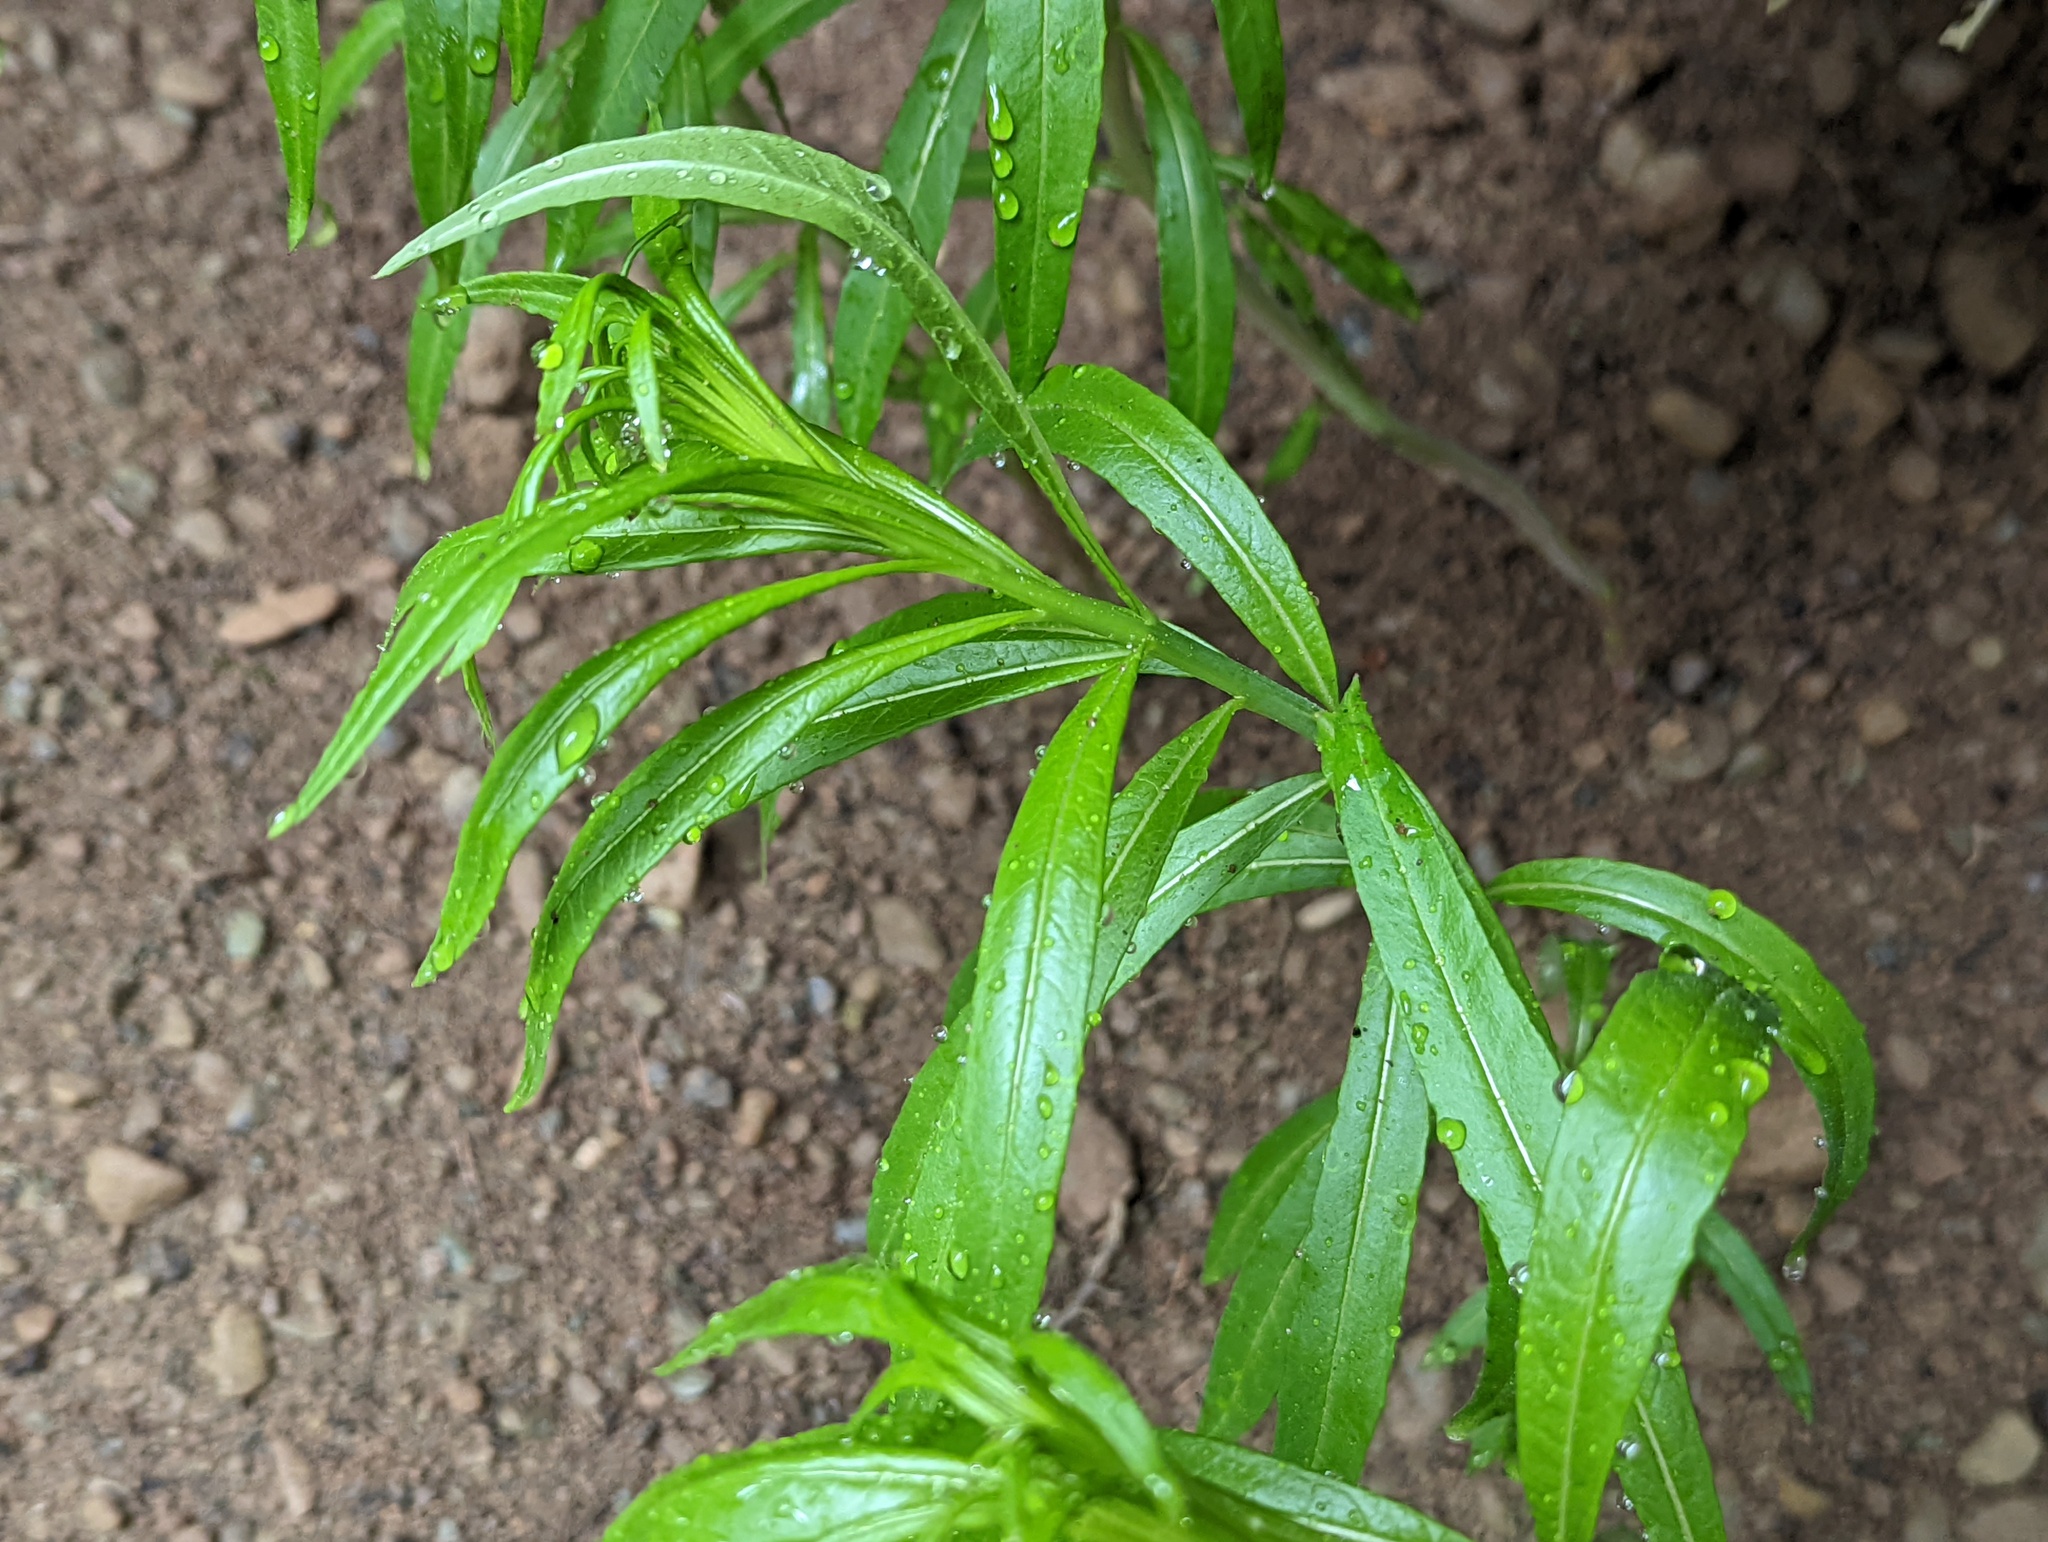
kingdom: Plantae
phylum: Tracheophyta
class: Magnoliopsida
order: Myrtales
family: Onagraceae
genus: Chamaenerion
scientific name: Chamaenerion angustifolium
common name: Fireweed
